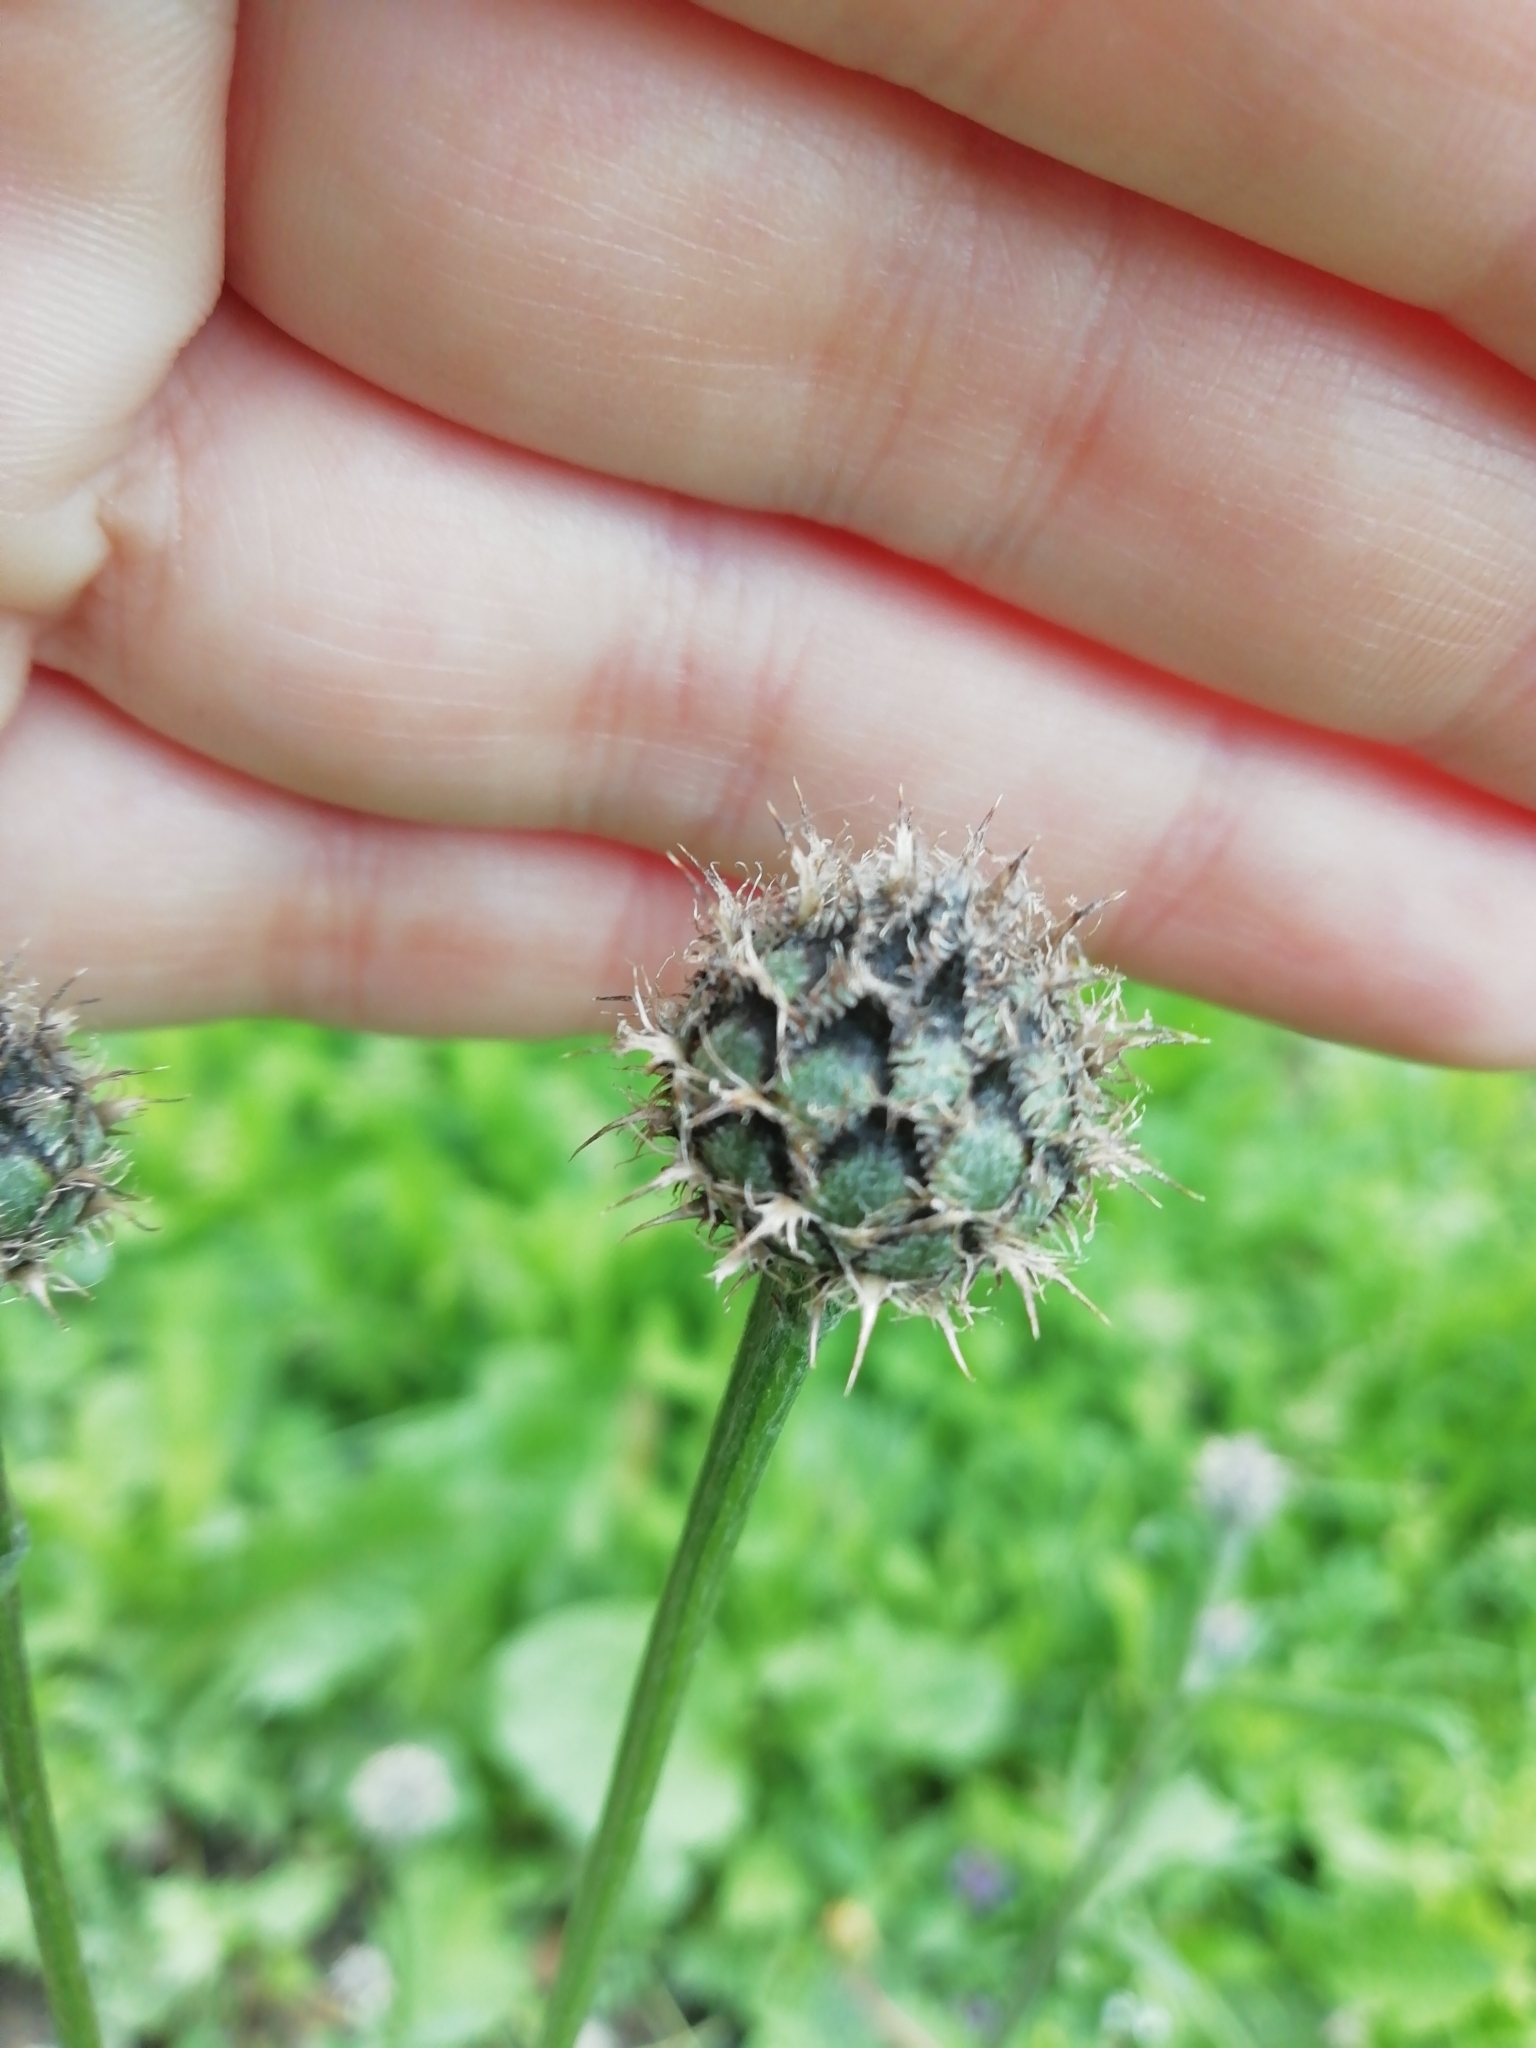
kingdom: Plantae
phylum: Tracheophyta
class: Magnoliopsida
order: Asterales
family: Asteraceae
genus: Centaurea
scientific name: Centaurea scabiosa
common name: Greater knapweed
